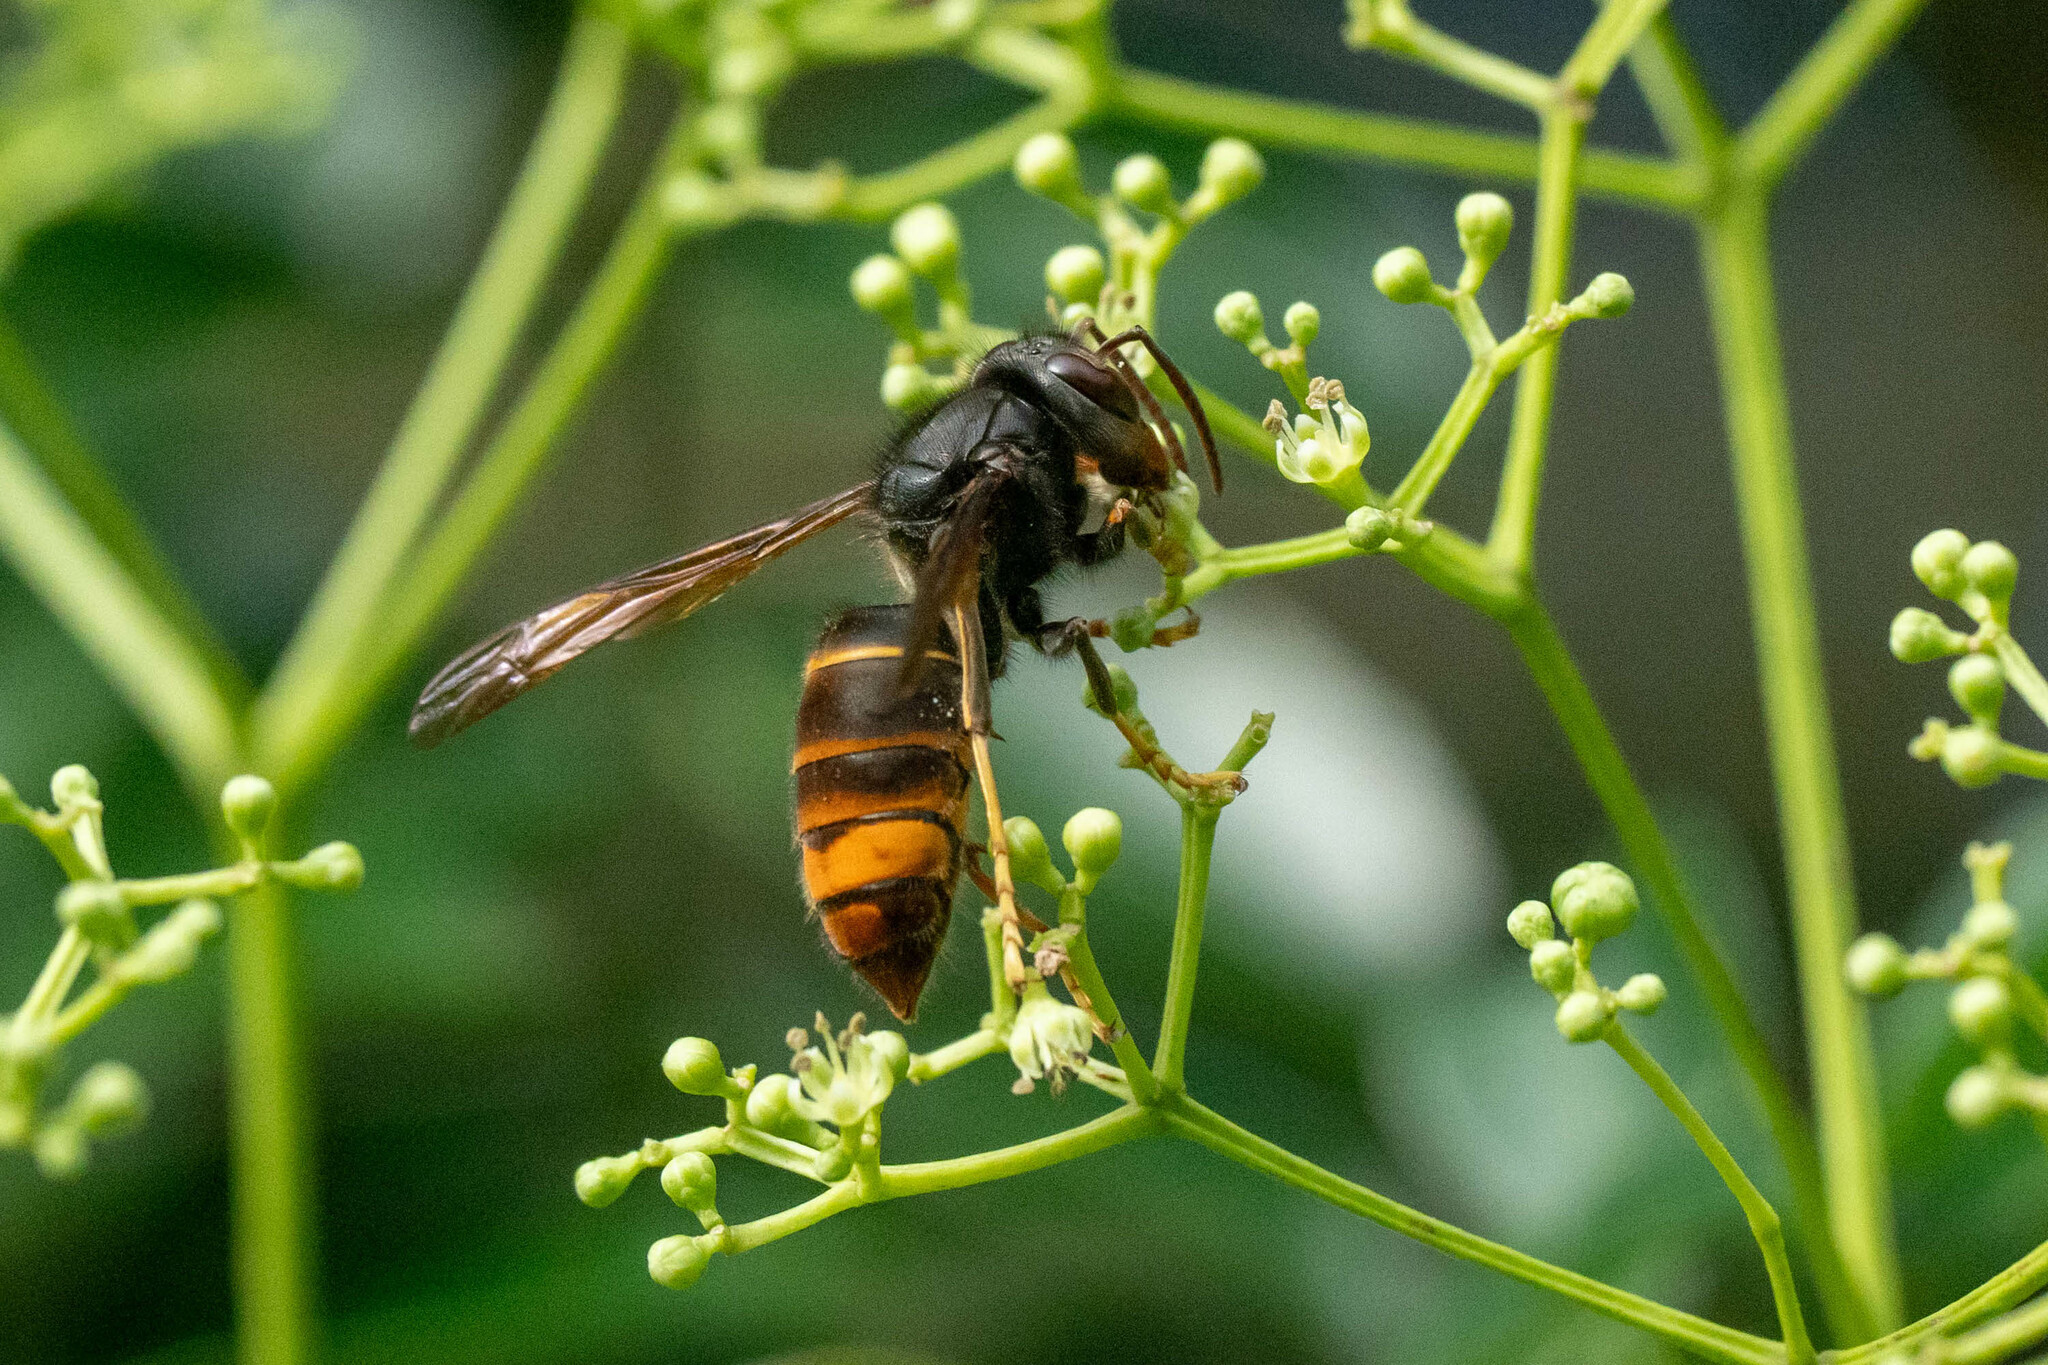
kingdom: Animalia
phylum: Arthropoda
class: Insecta
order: Hymenoptera
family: Vespidae
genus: Vespa
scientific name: Vespa velutina
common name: Asian hornet
